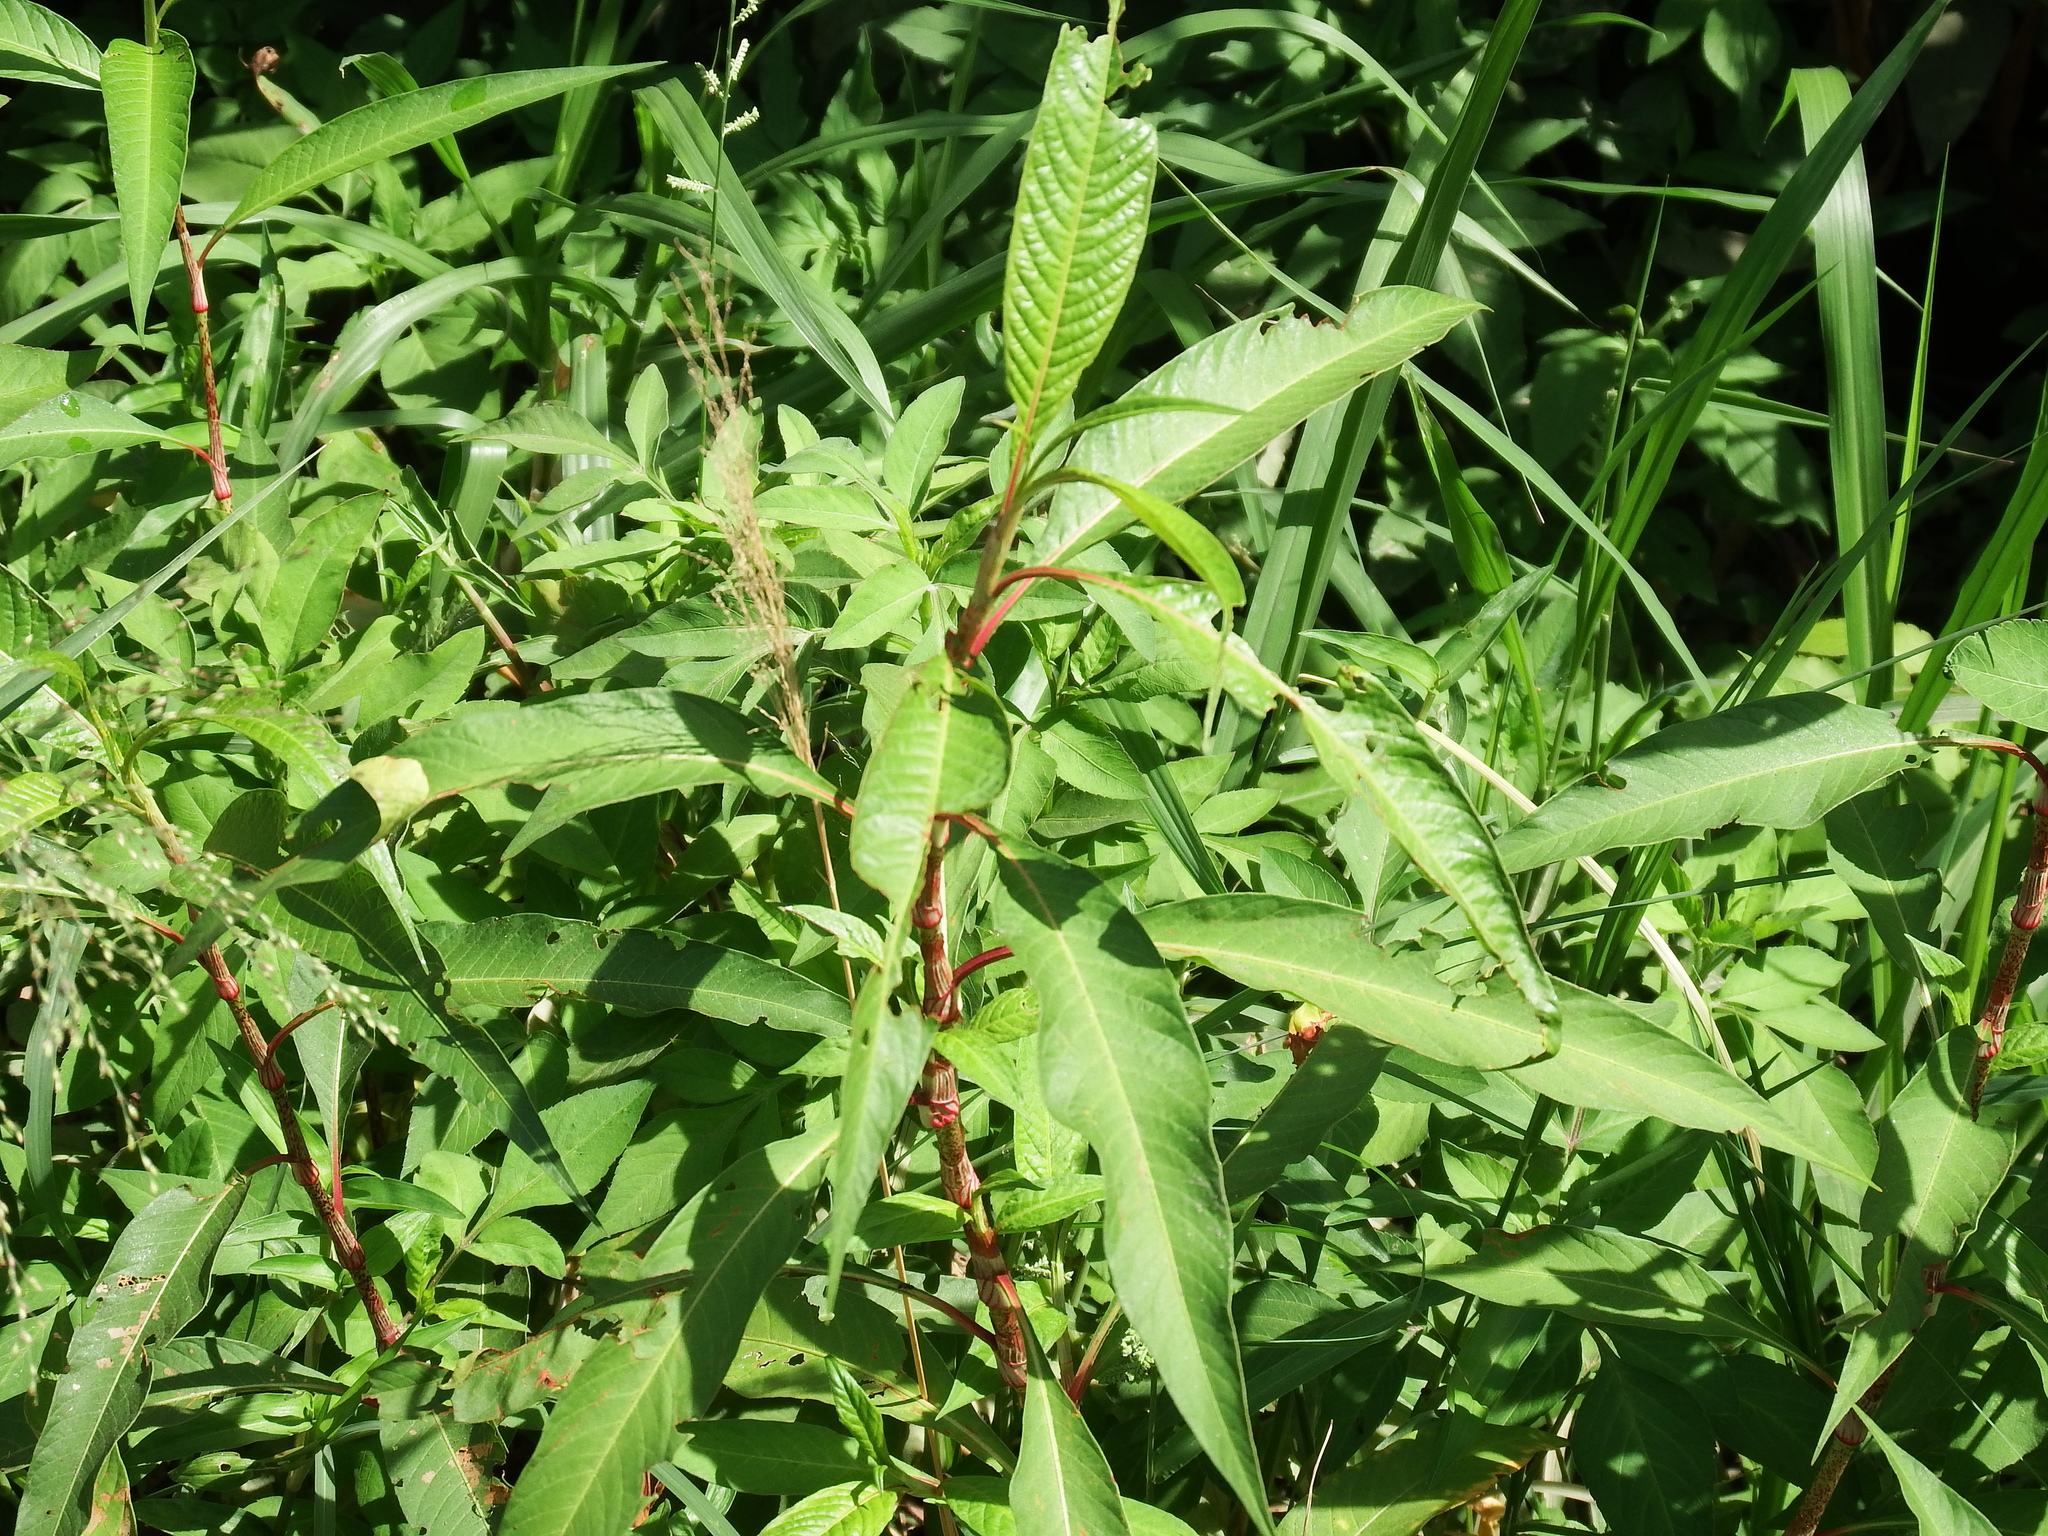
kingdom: Plantae
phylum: Tracheophyta
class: Magnoliopsida
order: Caryophyllales
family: Polygonaceae
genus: Persicaria
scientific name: Persicaria lapathifolia
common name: Curlytop knotweed
